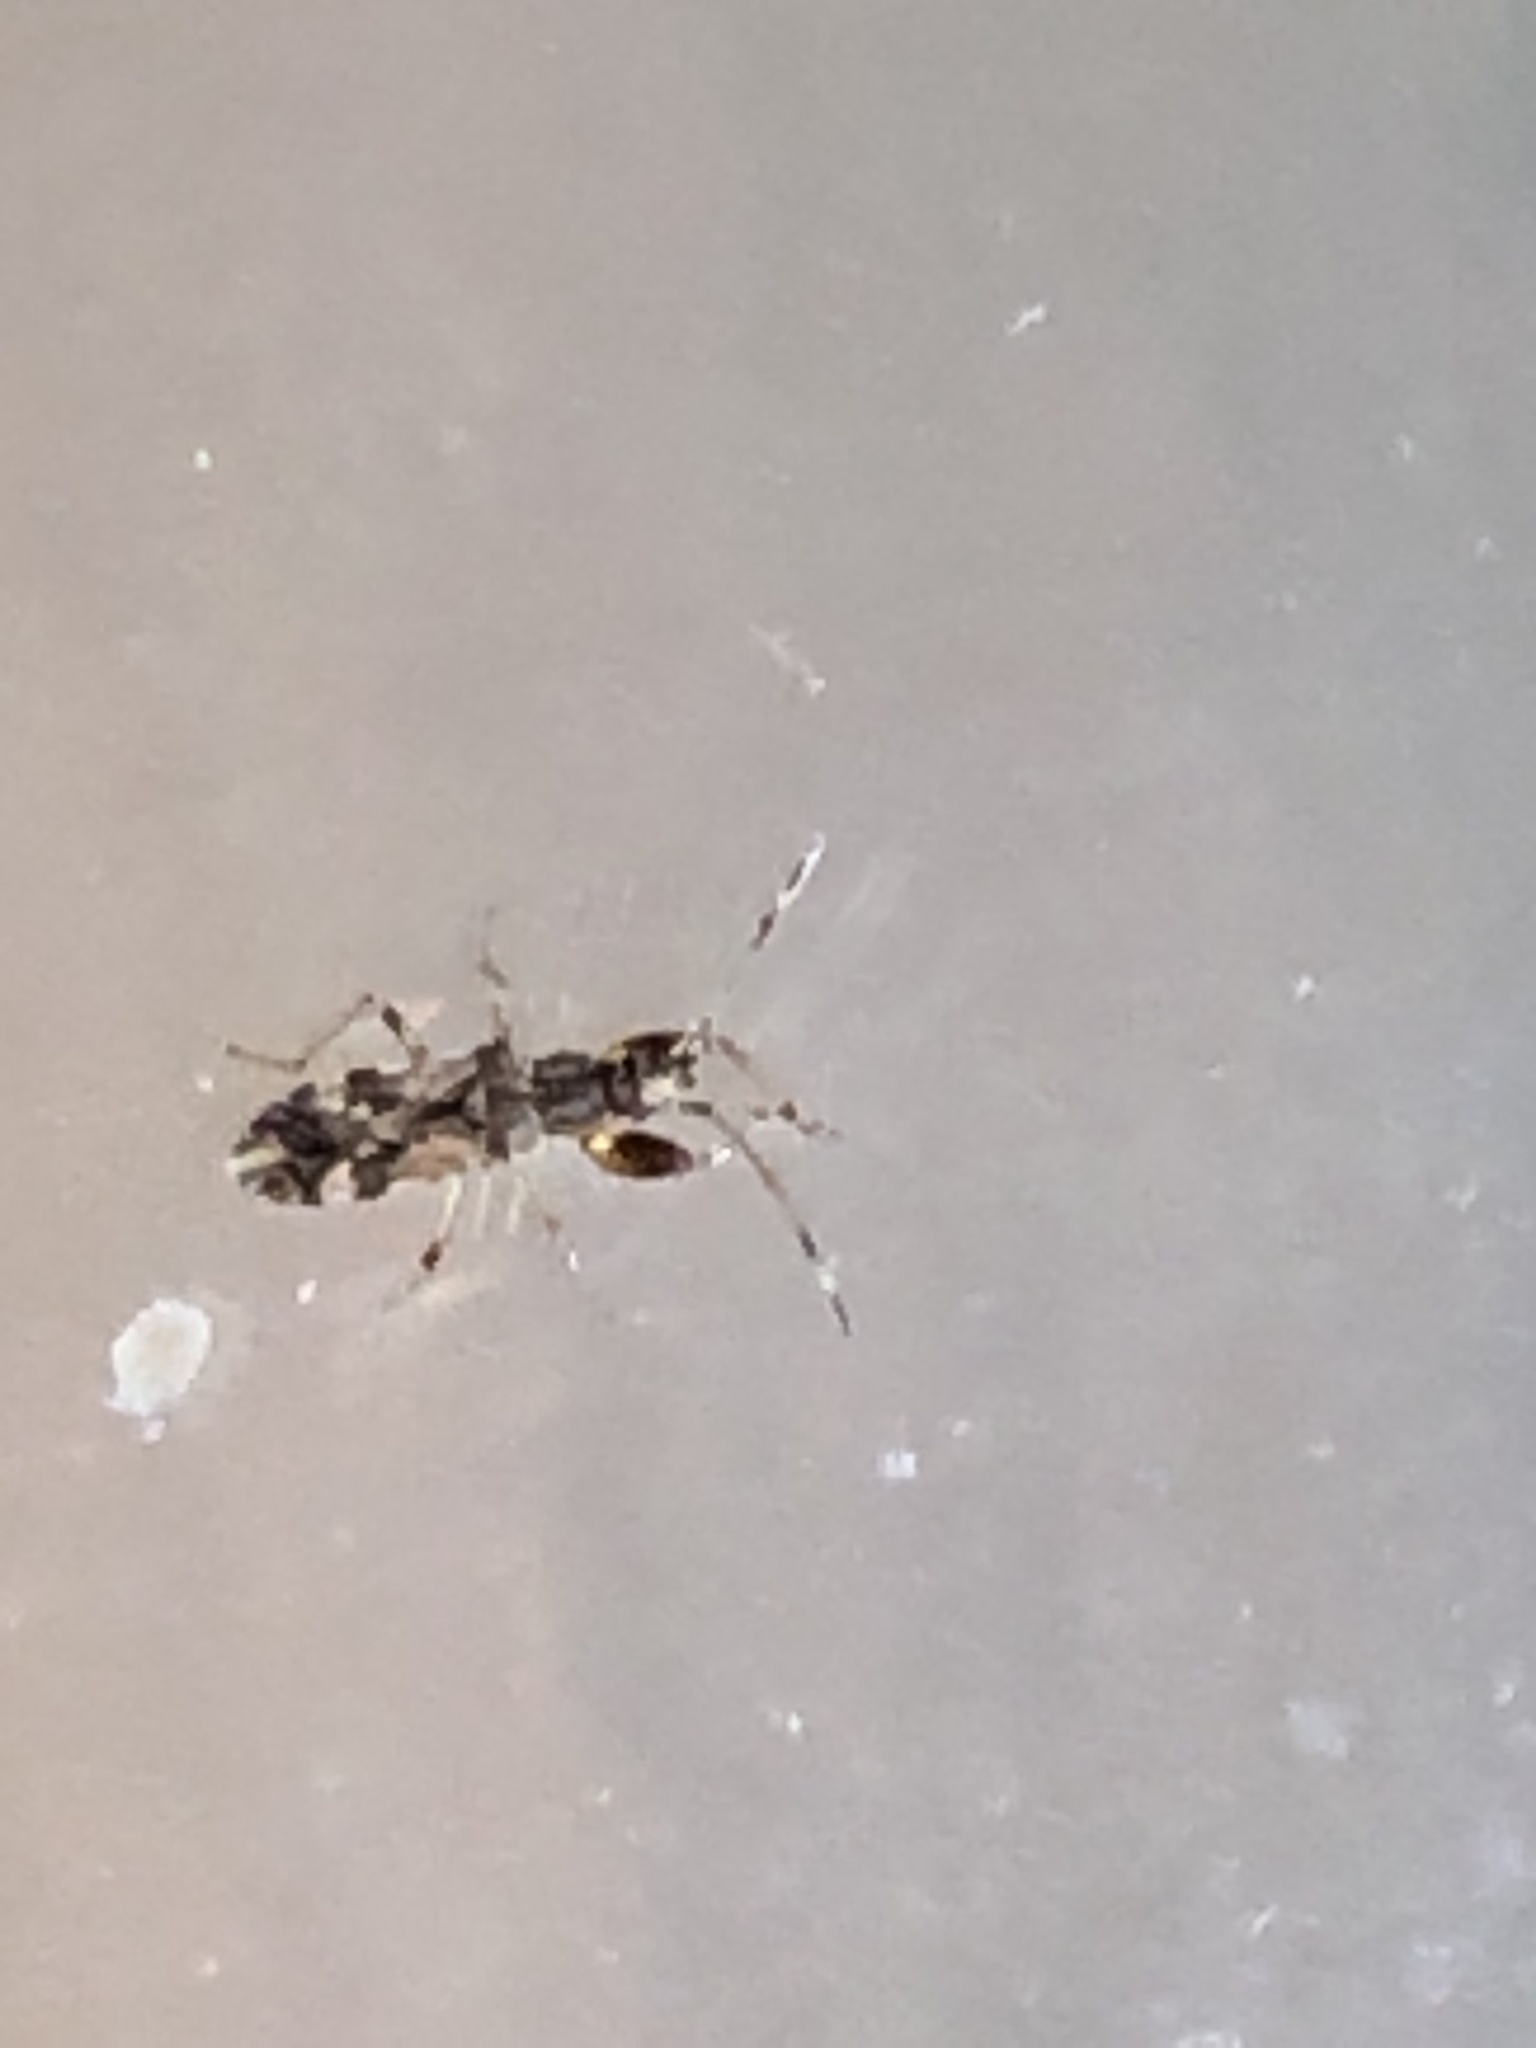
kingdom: Animalia
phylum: Arthropoda
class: Insecta
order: Hemiptera
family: Rhyparochromidae
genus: Neopamera
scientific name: Neopamera albocincta
